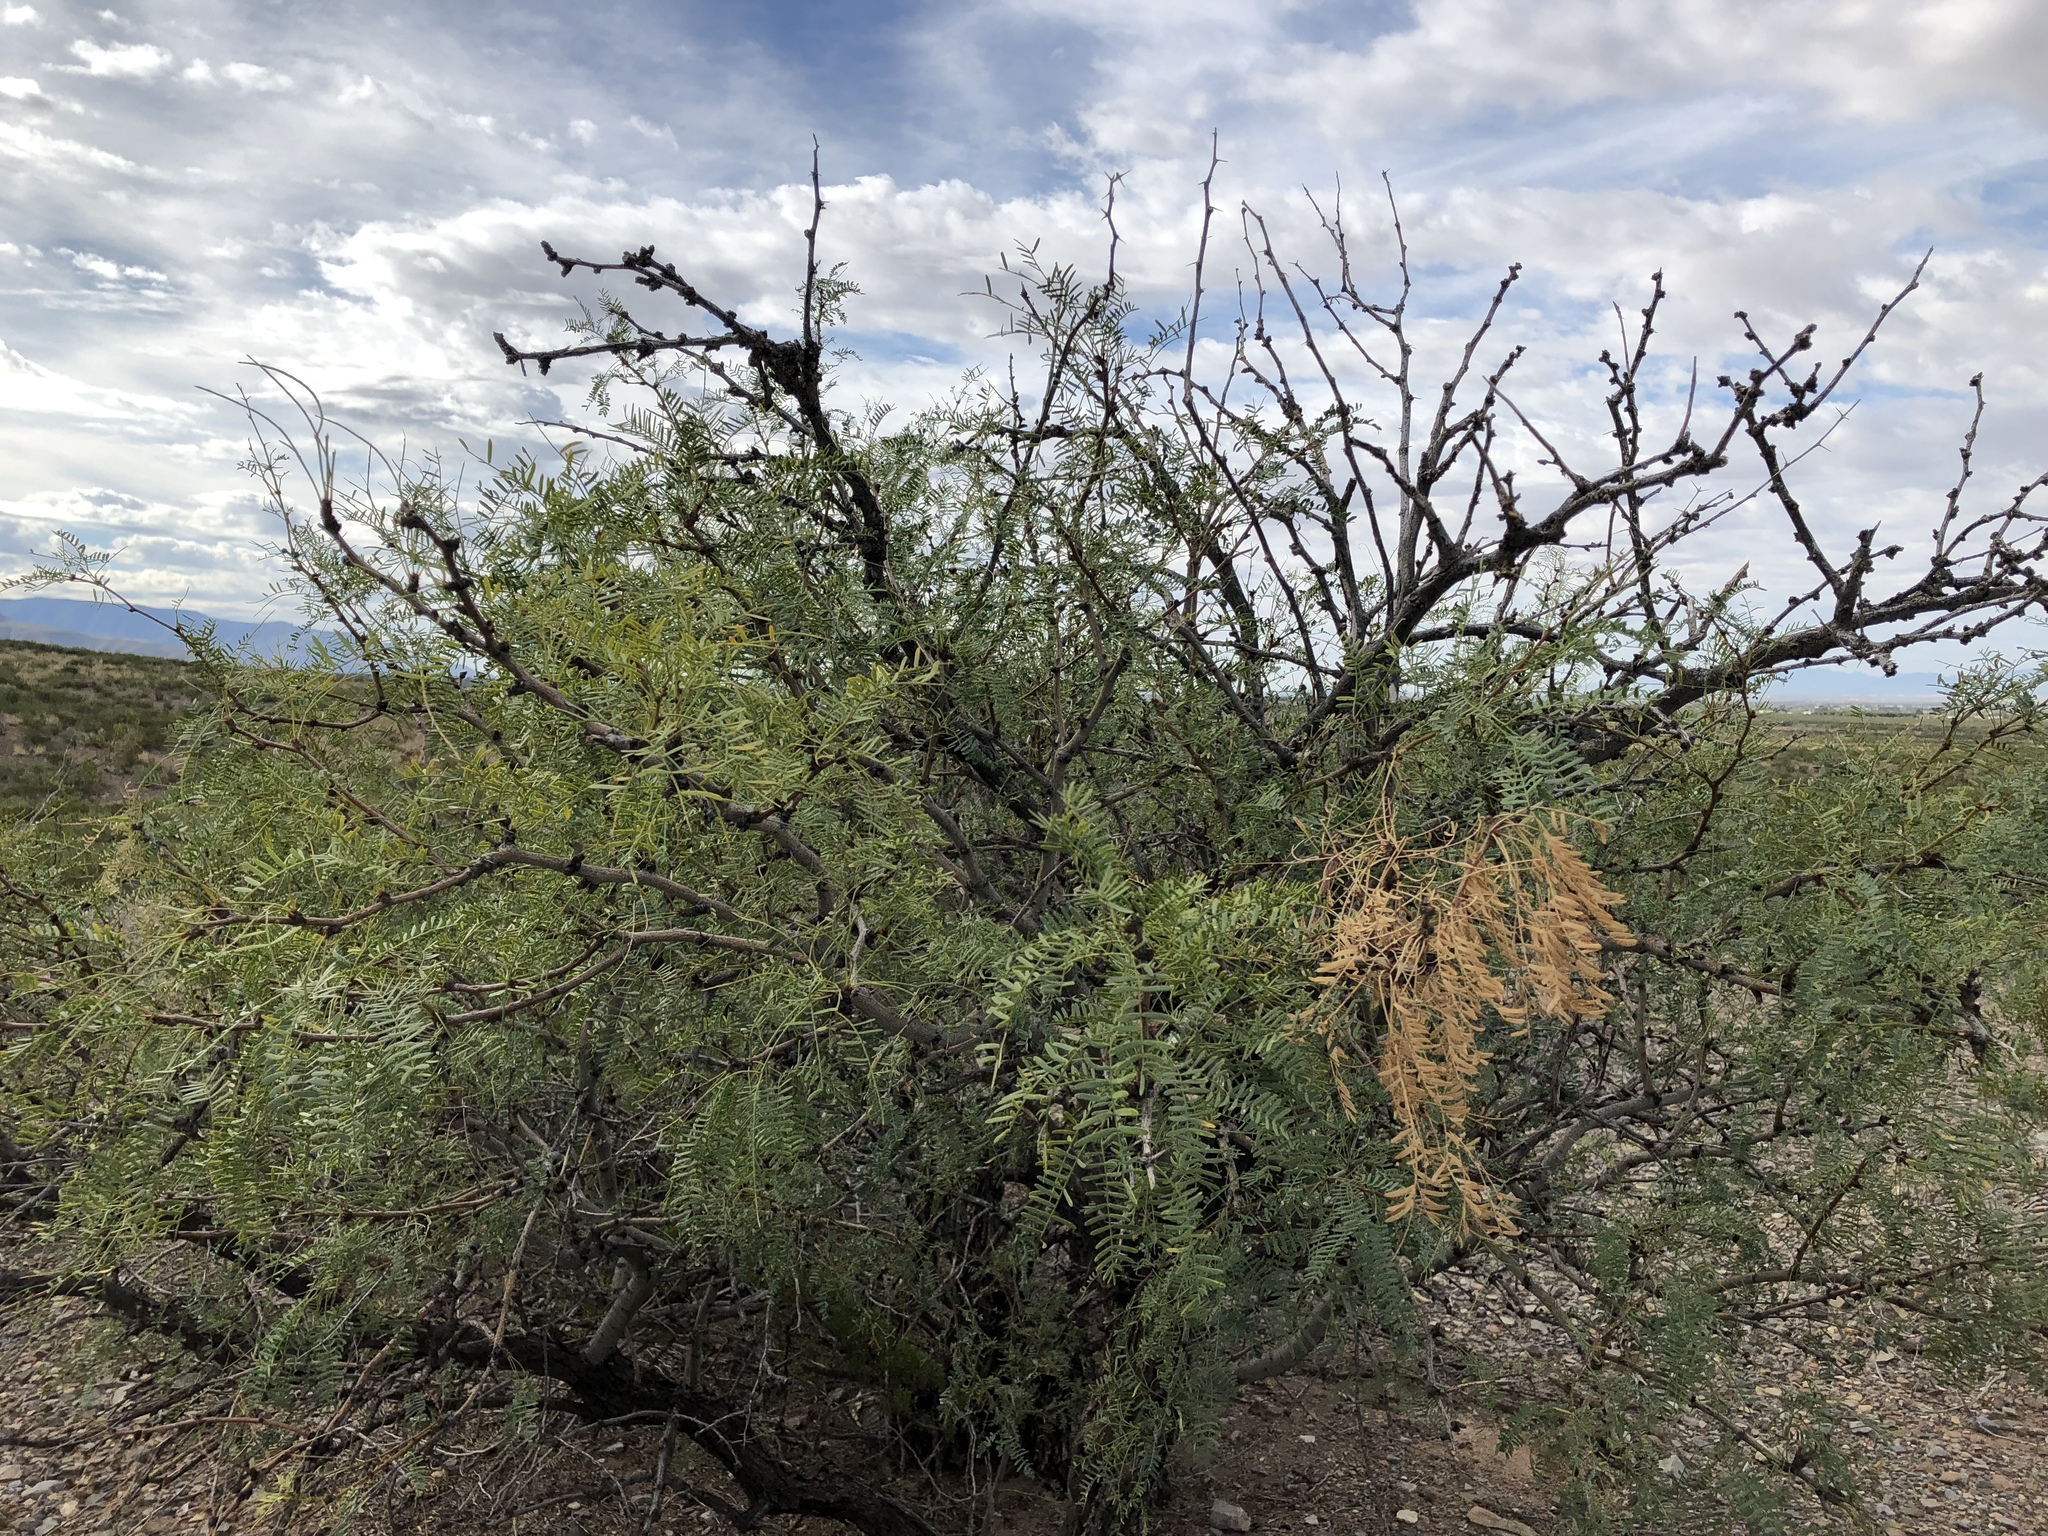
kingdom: Plantae
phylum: Tracheophyta
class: Magnoliopsida
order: Fabales
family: Fabaceae
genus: Prosopis
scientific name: Prosopis glandulosa
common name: Honey mesquite
